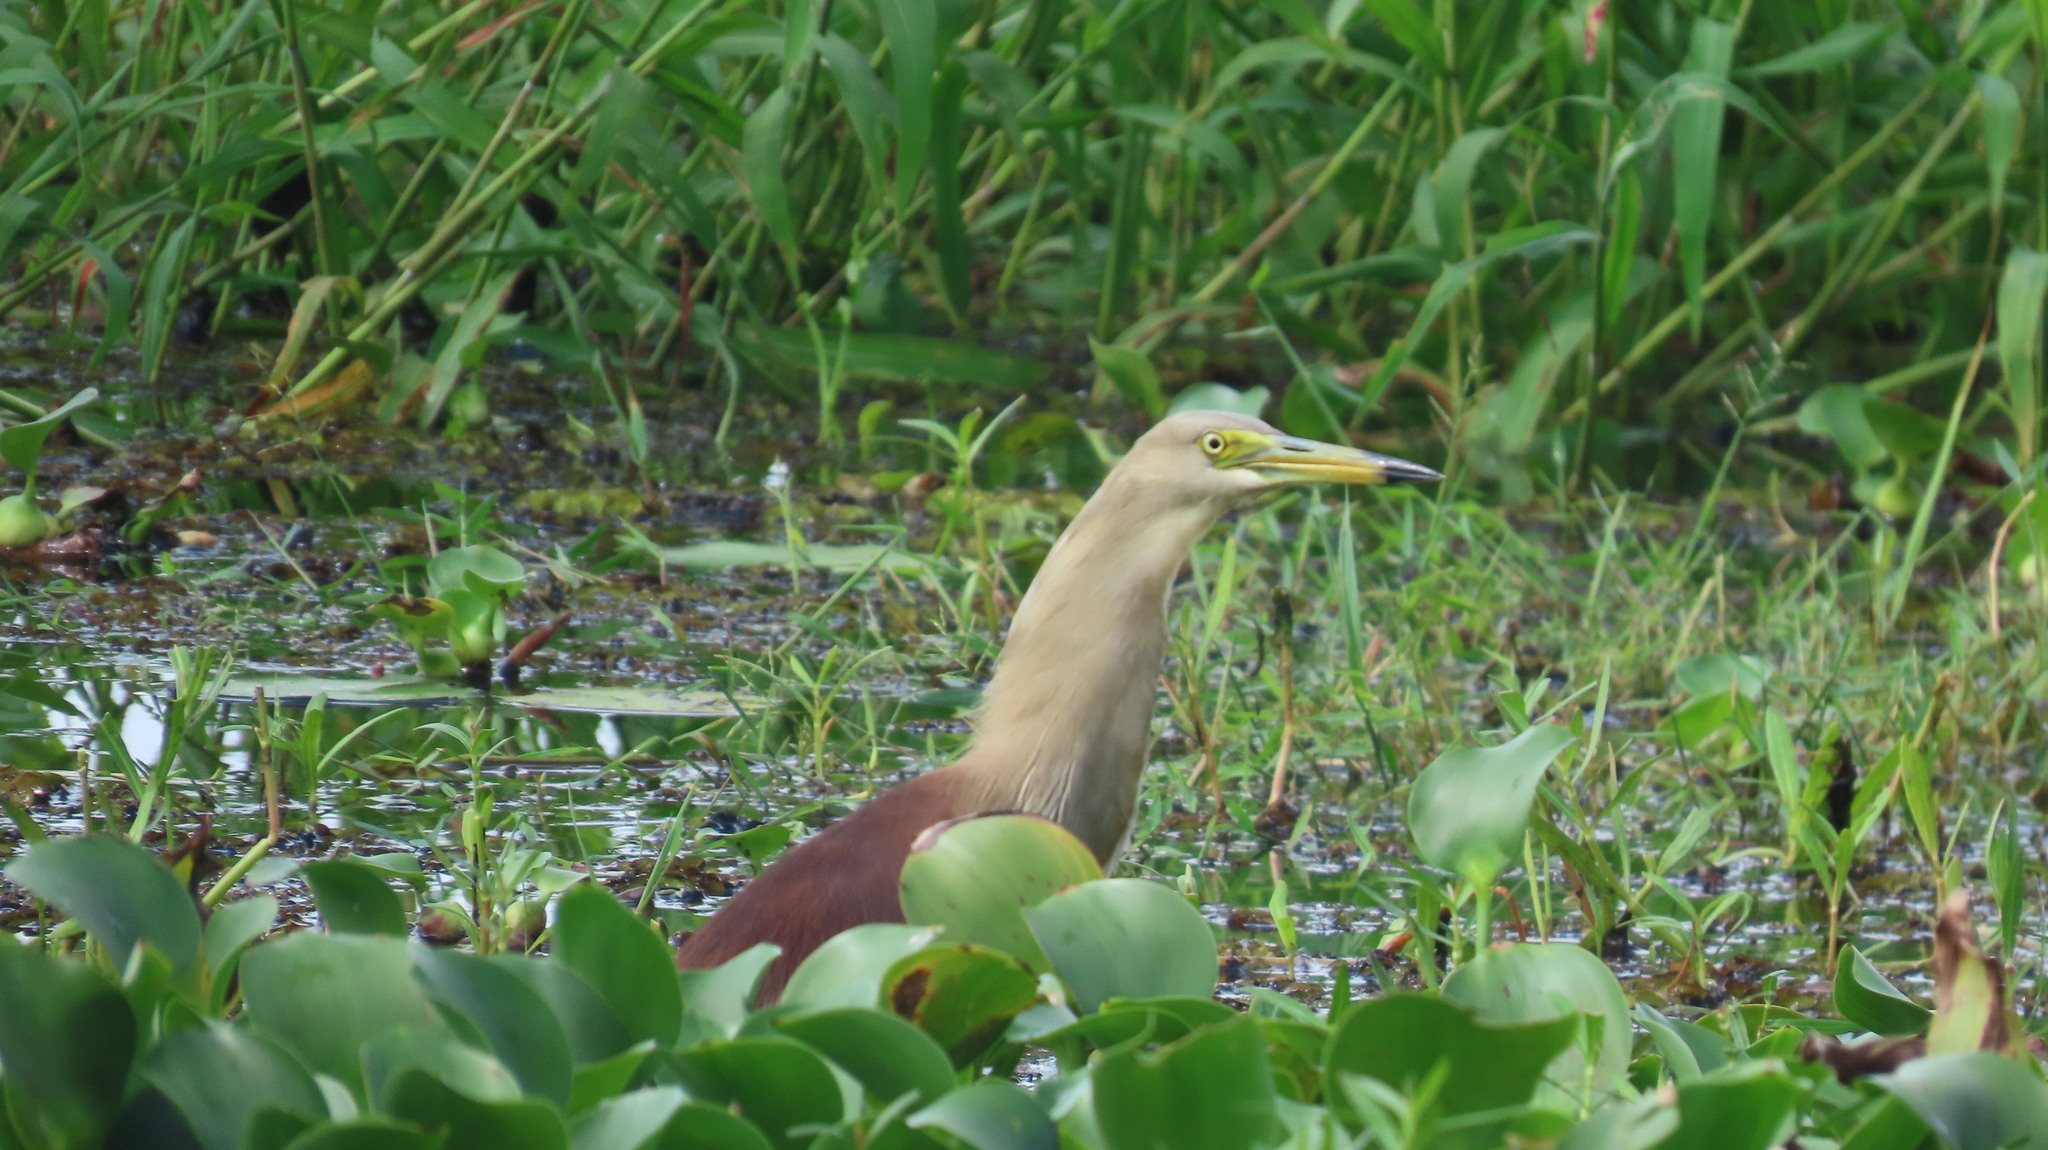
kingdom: Animalia
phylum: Chordata
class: Aves
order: Pelecaniformes
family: Ardeidae
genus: Ardeola
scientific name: Ardeola grayii
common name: Indian pond heron
